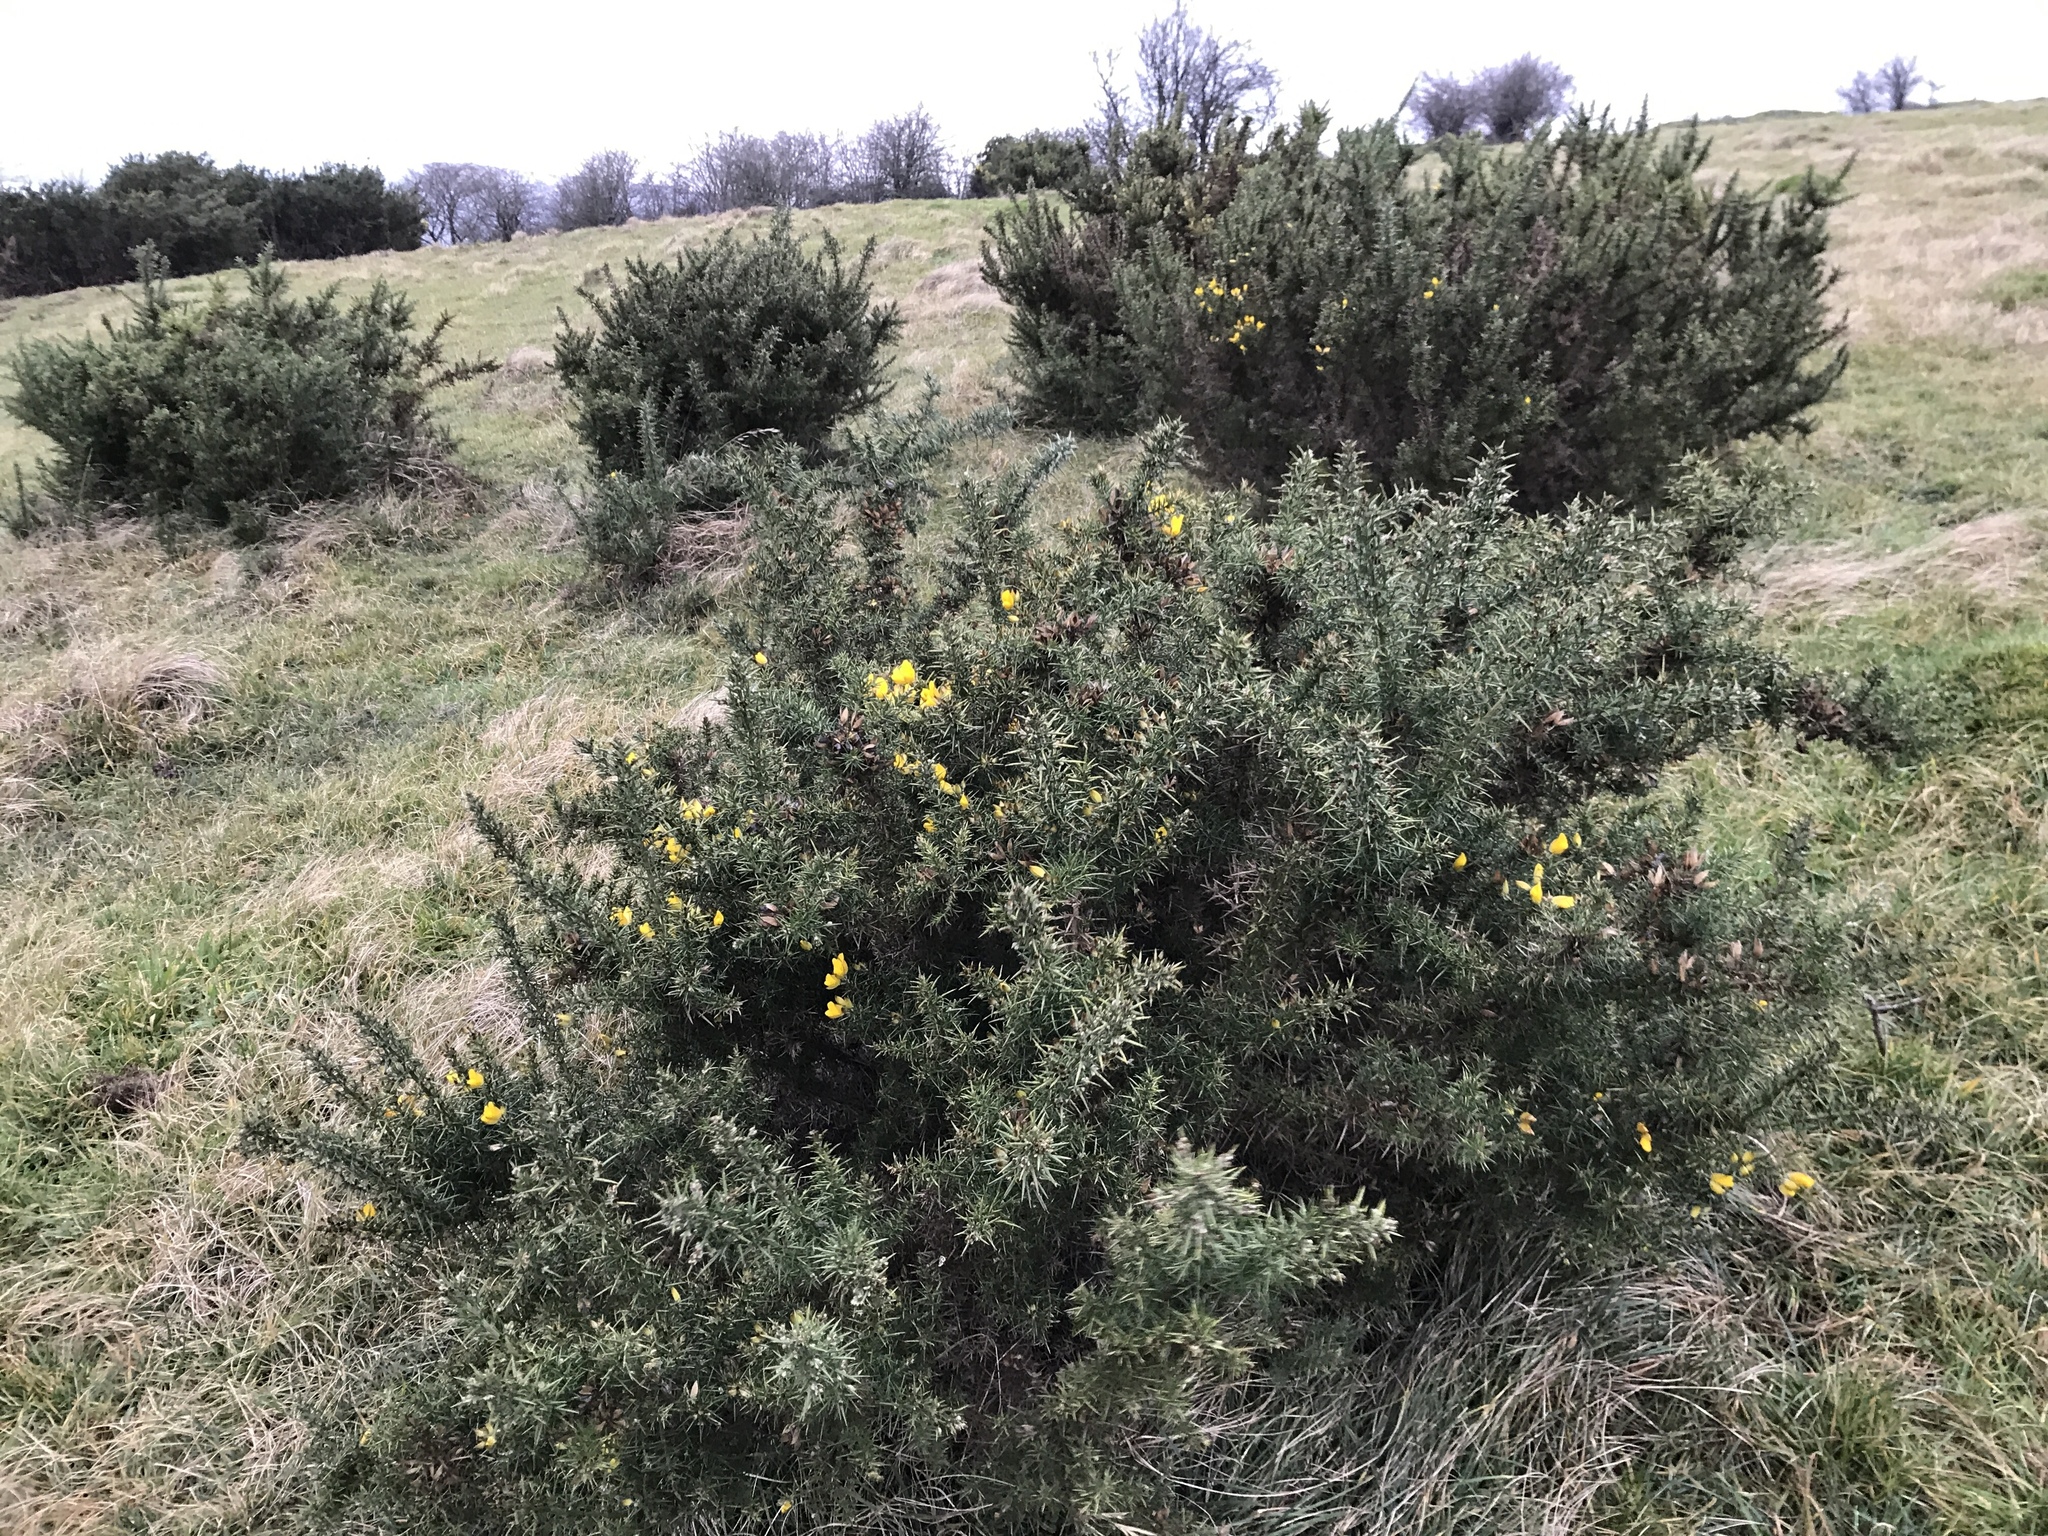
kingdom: Plantae
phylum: Tracheophyta
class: Magnoliopsida
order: Fabales
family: Fabaceae
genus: Ulex
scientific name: Ulex europaeus
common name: Common gorse
